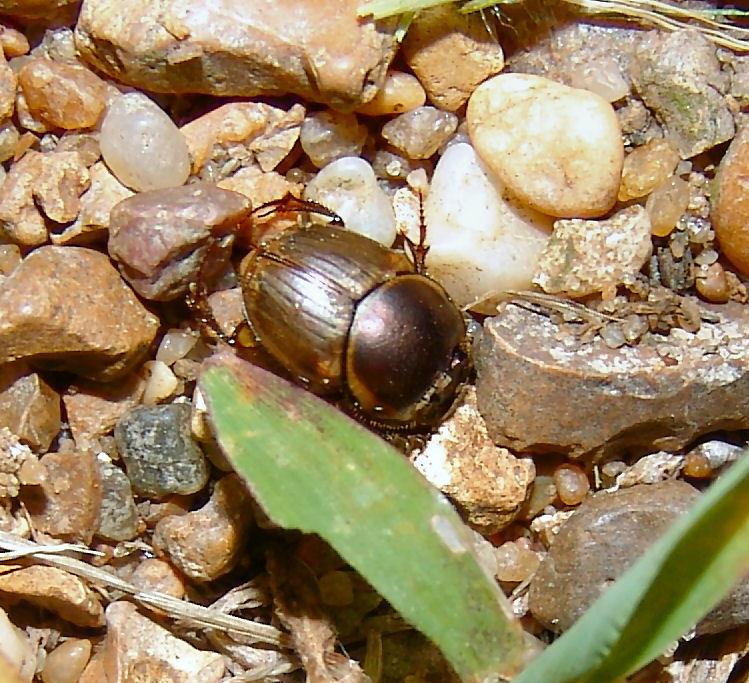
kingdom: Animalia
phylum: Arthropoda
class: Insecta
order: Coleoptera
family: Scarabaeidae
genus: Digitonthophagus
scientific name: Digitonthophagus gazella
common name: Brown dung beetle
